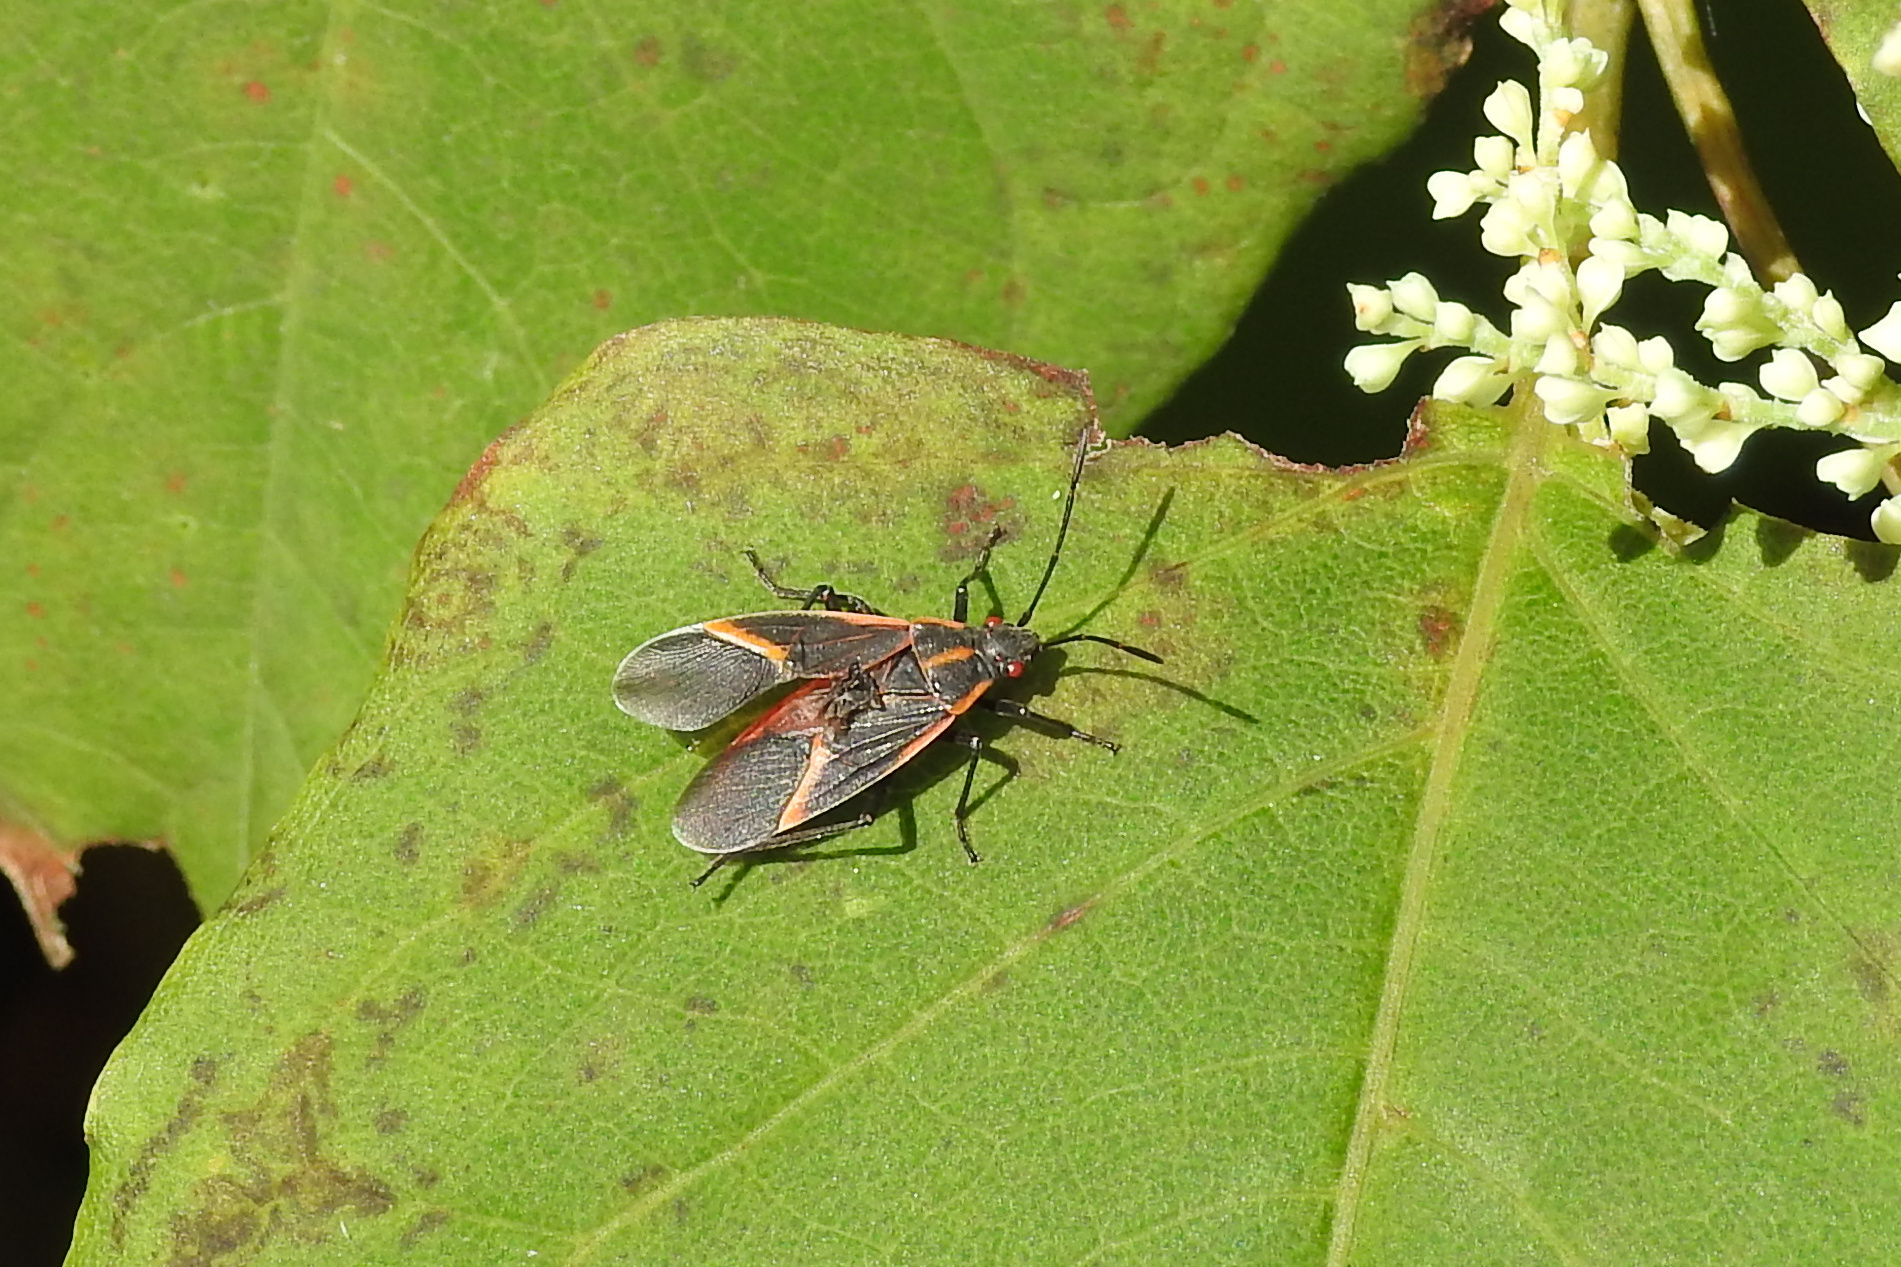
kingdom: Animalia
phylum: Arthropoda
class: Insecta
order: Hemiptera
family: Rhopalidae
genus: Boisea
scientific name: Boisea trivittata
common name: Boxelder bug
